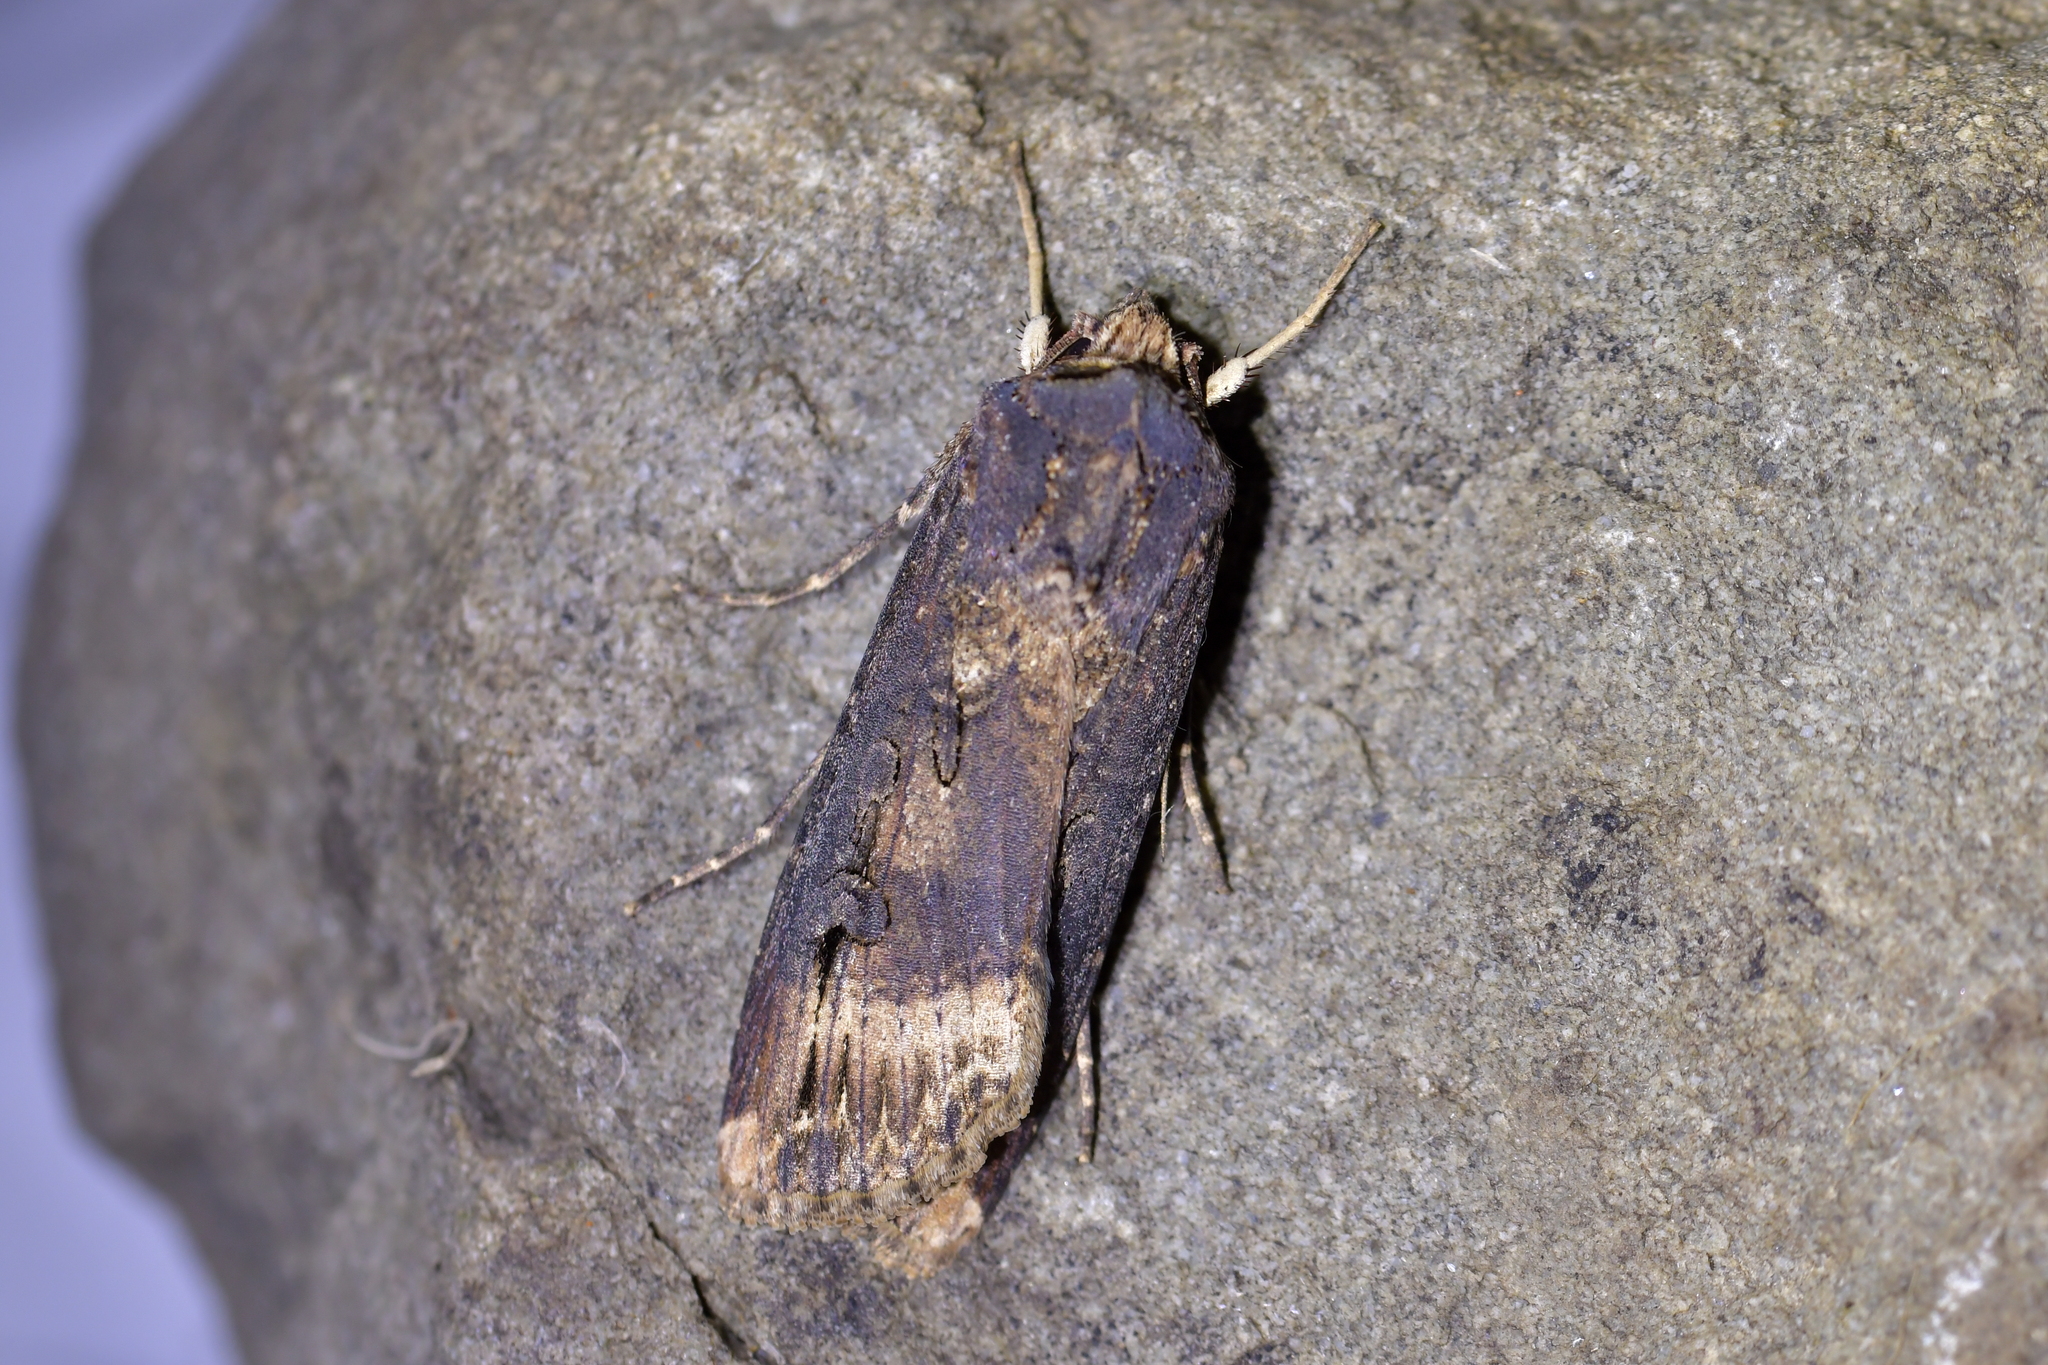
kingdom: Animalia
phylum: Arthropoda
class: Insecta
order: Lepidoptera
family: Noctuidae
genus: Agrotis
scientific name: Agrotis ipsilon
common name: Dark sword-grass
